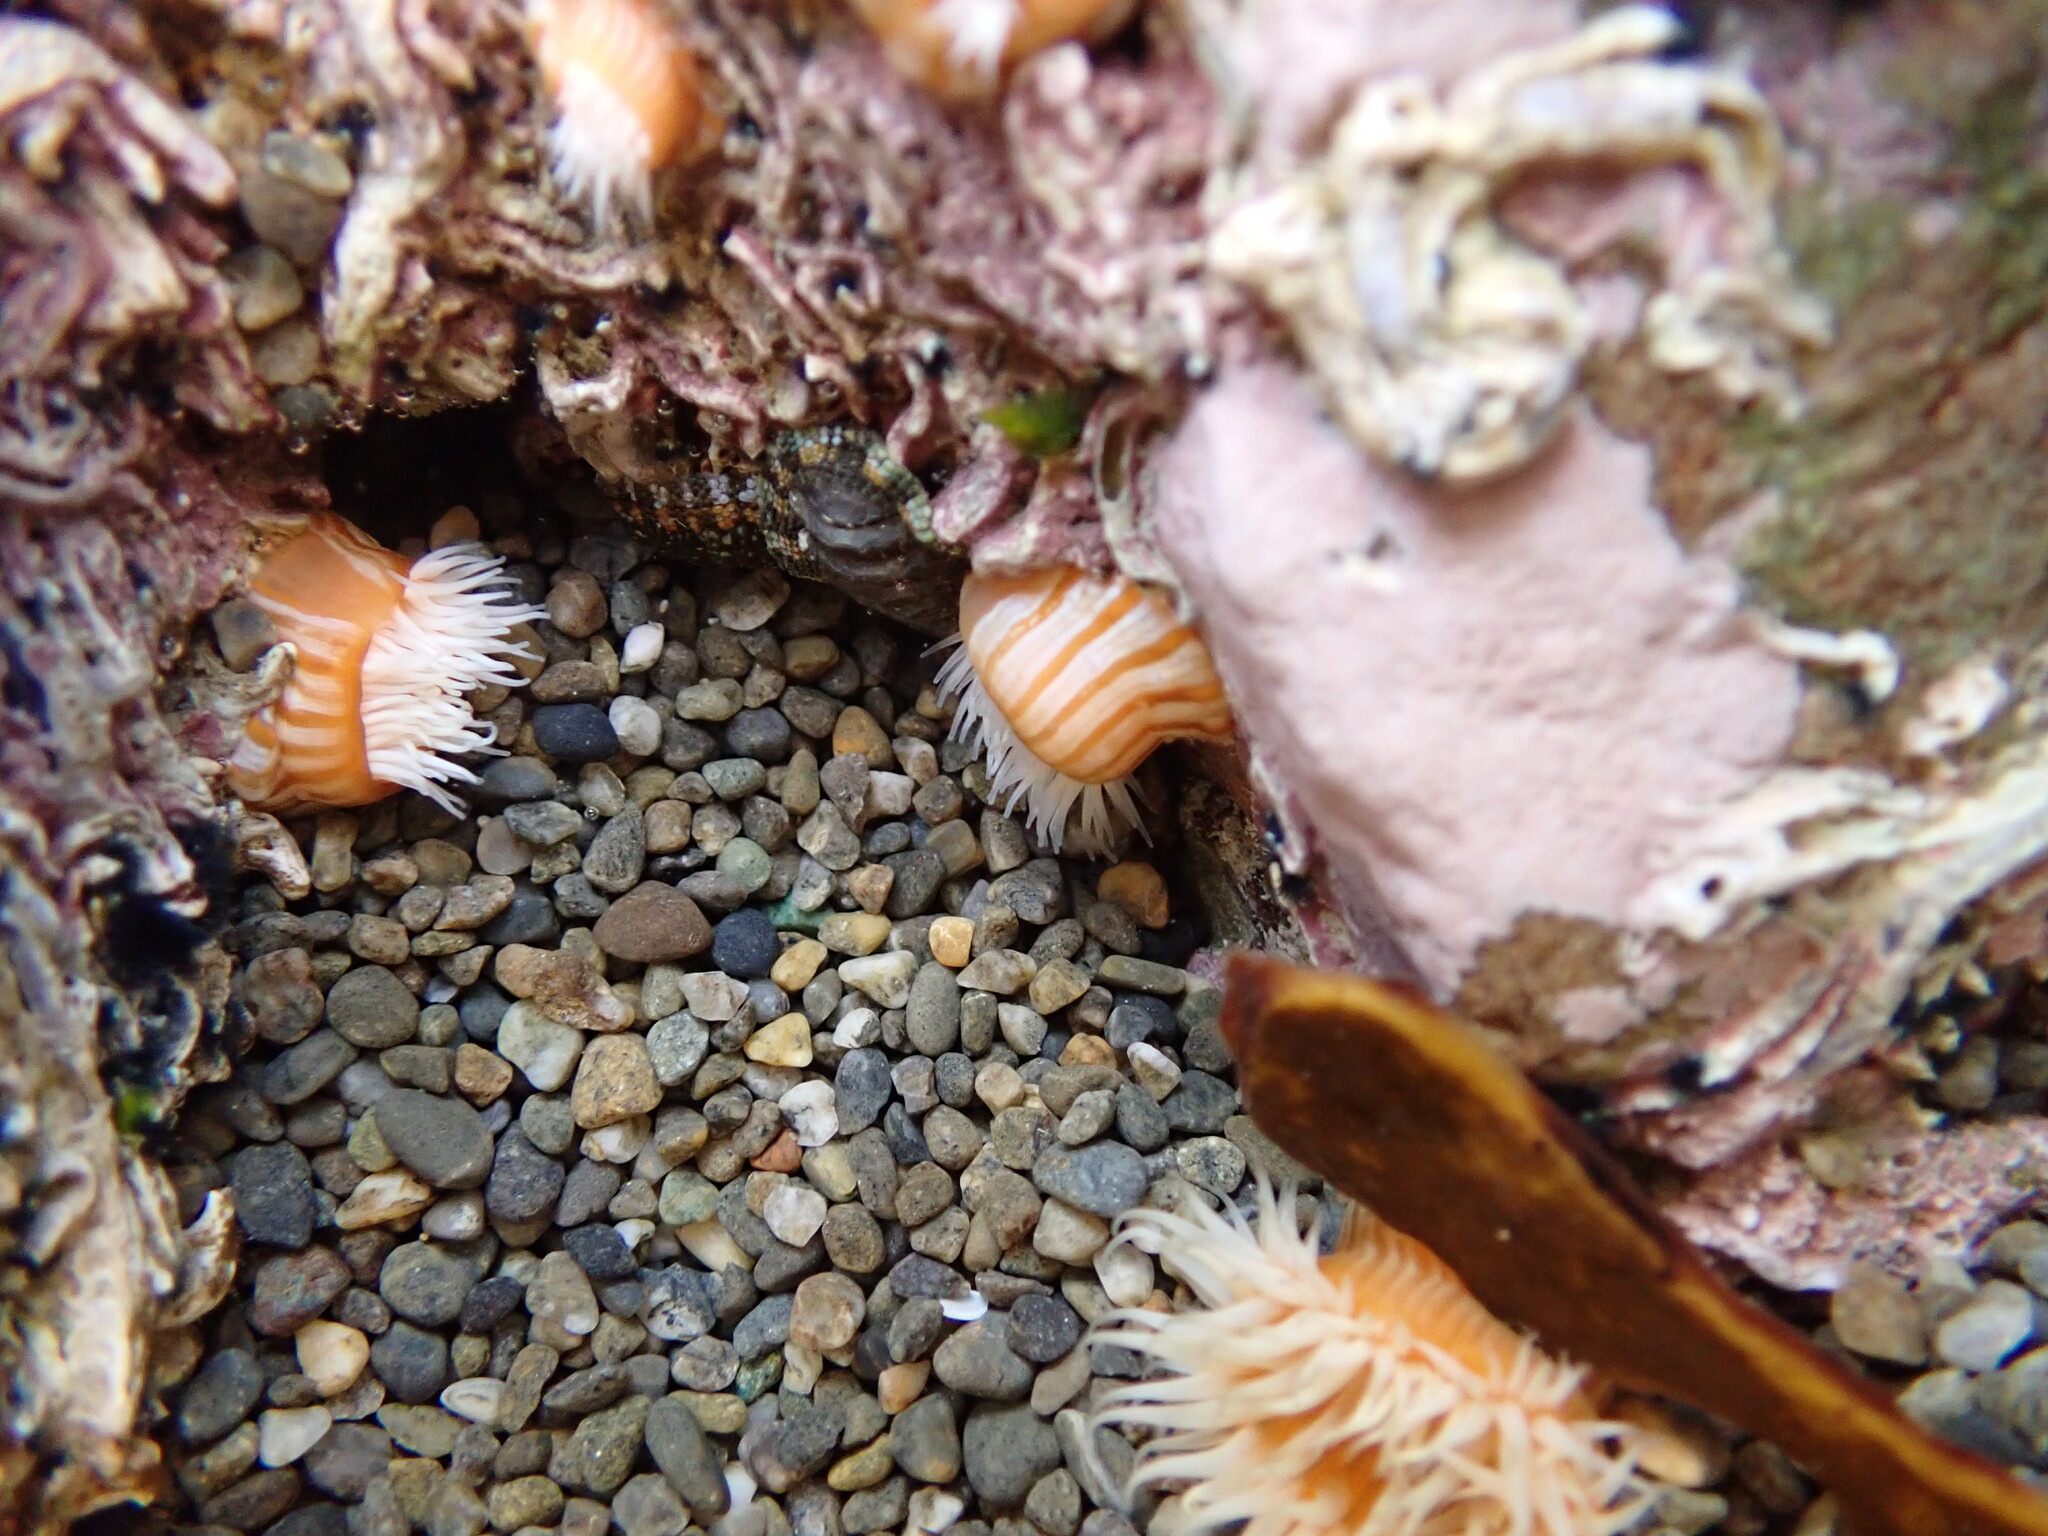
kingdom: Animalia
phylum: Cnidaria
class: Anthozoa
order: Actiniaria
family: Sagartiidae
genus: Anthothoe
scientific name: Anthothoe albocincta
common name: Orange striped anemone
